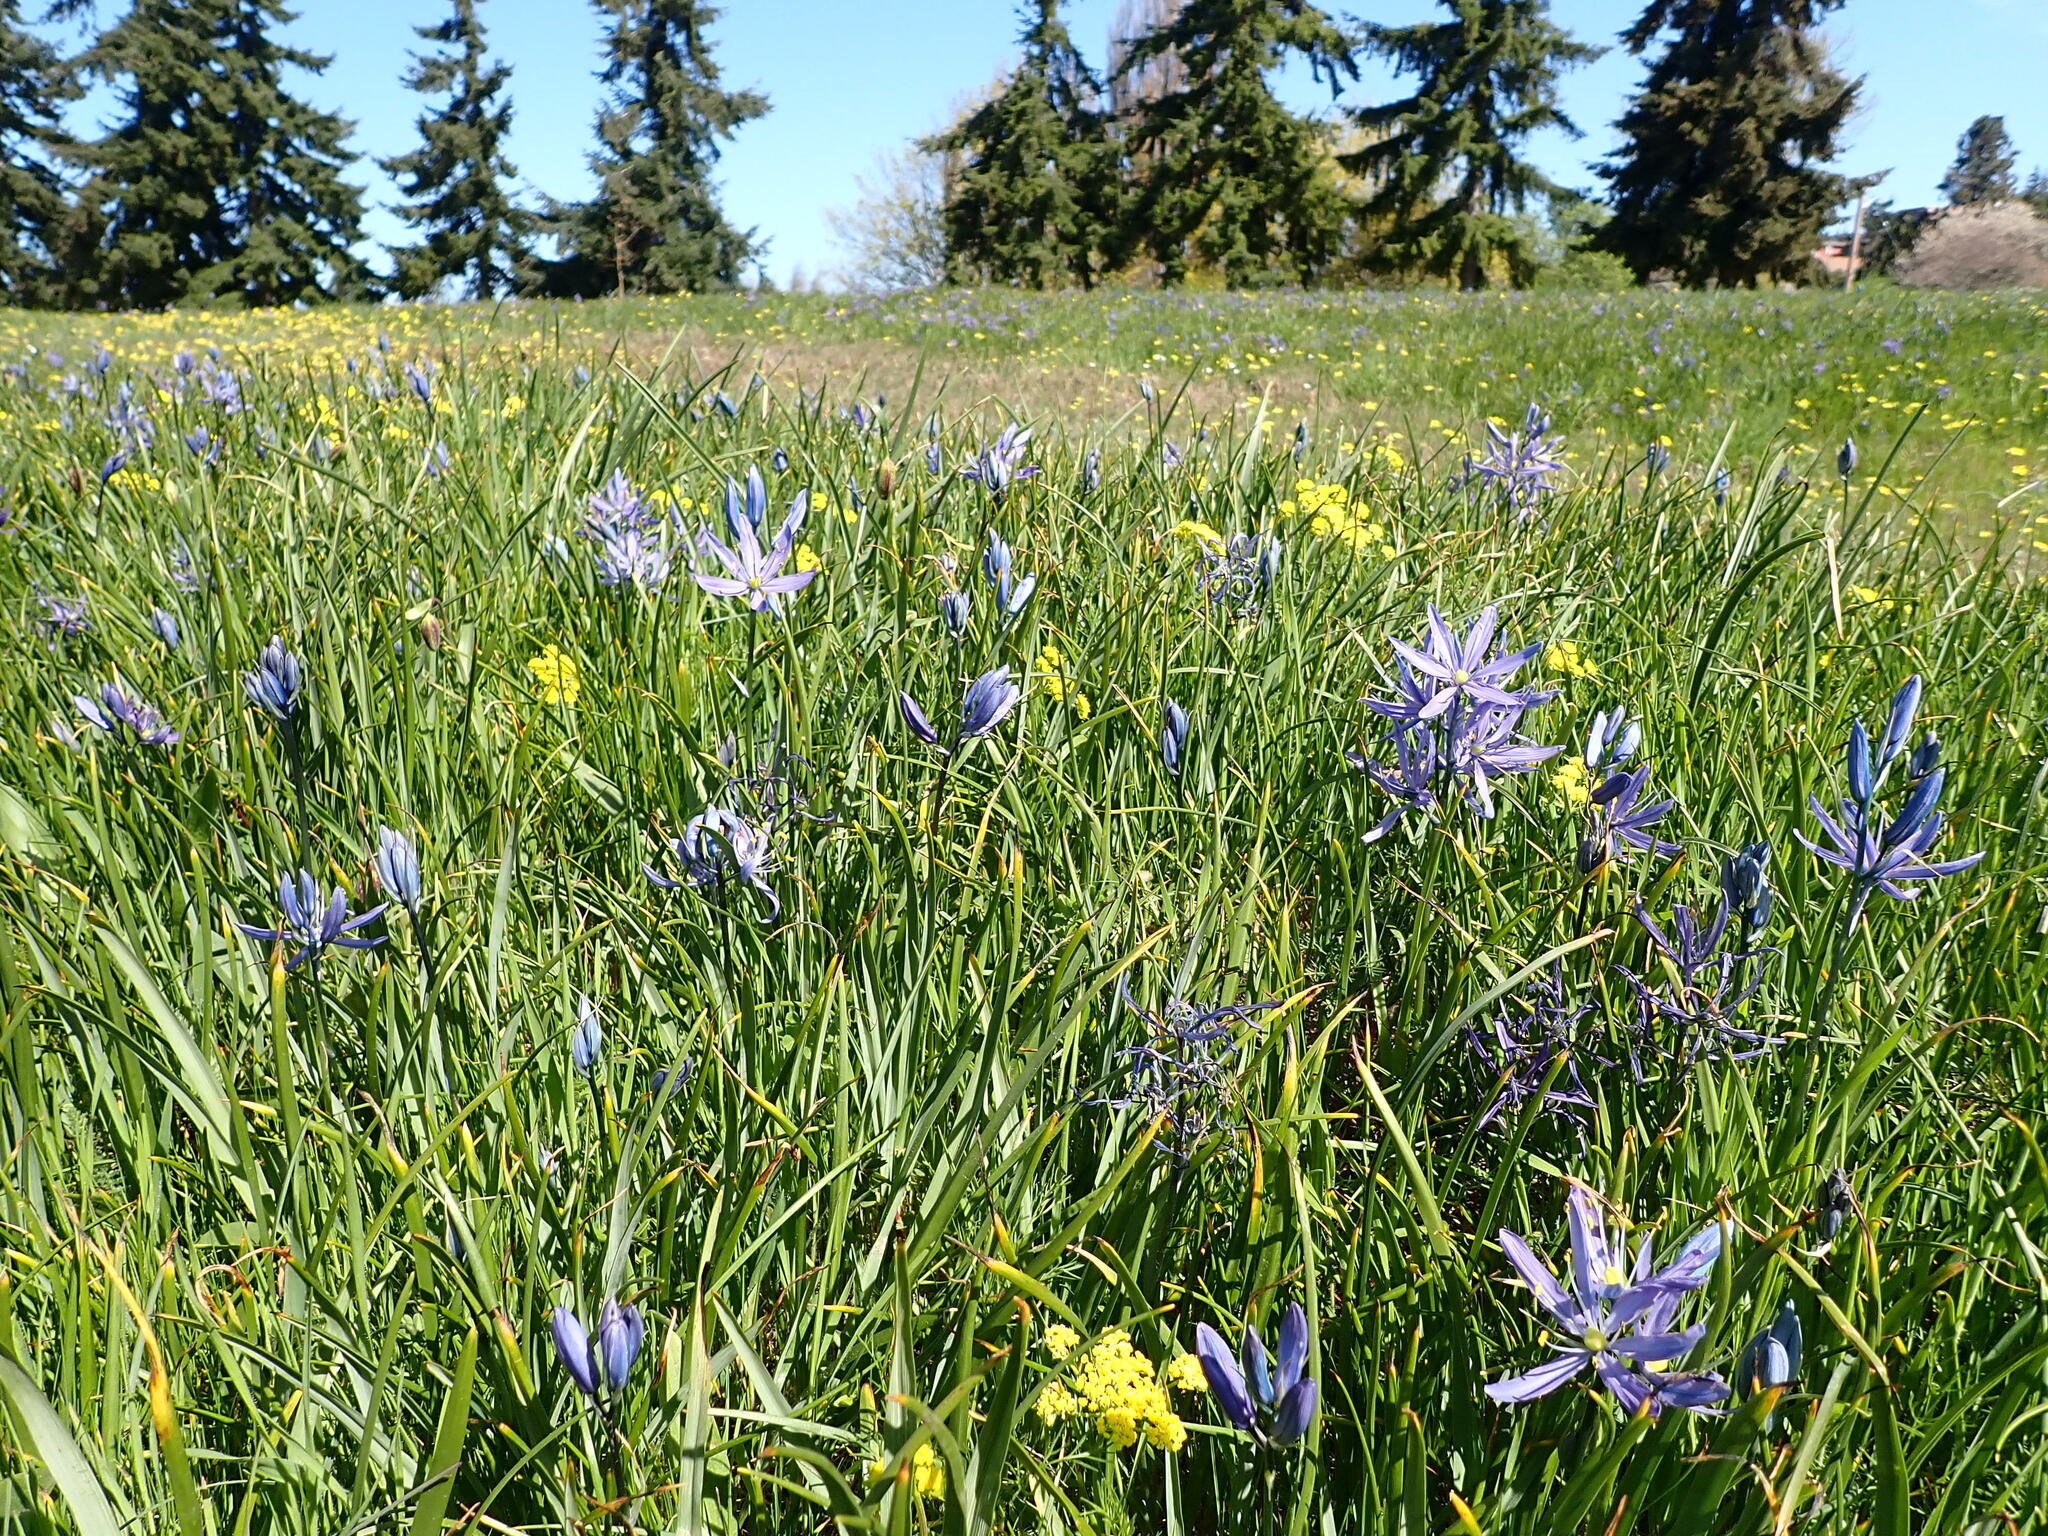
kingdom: Plantae
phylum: Tracheophyta
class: Liliopsida
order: Asparagales
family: Asparagaceae
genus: Camassia
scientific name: Camassia quamash
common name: Common camas
